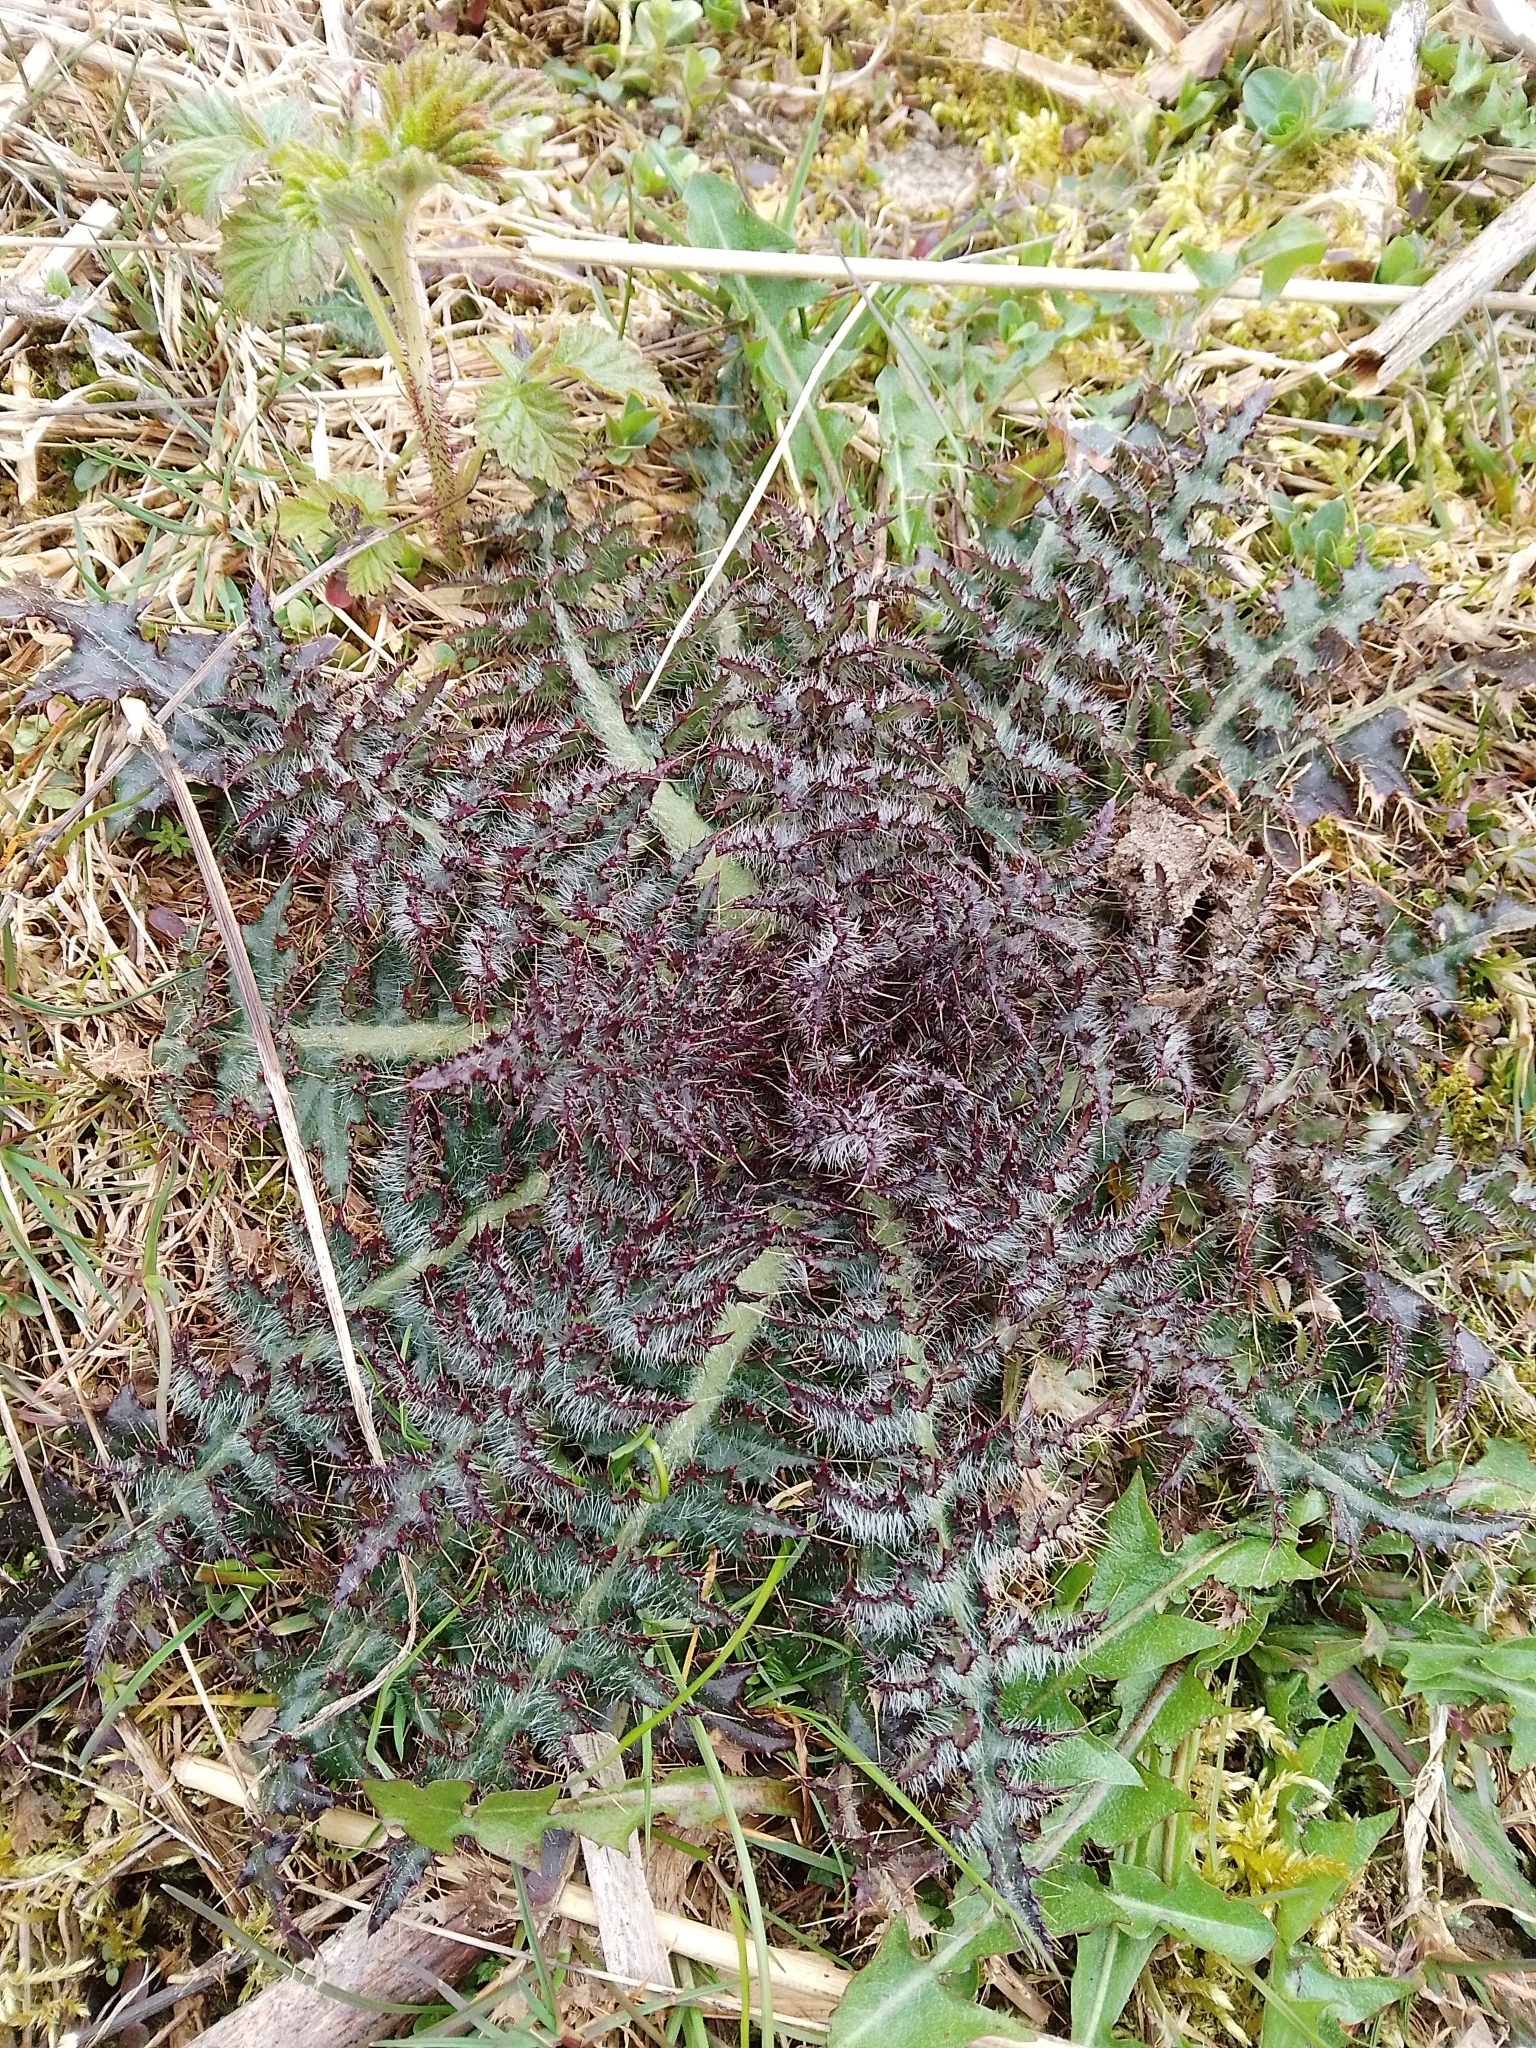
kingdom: Plantae
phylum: Tracheophyta
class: Magnoliopsida
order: Asterales
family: Asteraceae
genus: Cirsium
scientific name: Cirsium palustre
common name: Marsh thistle
